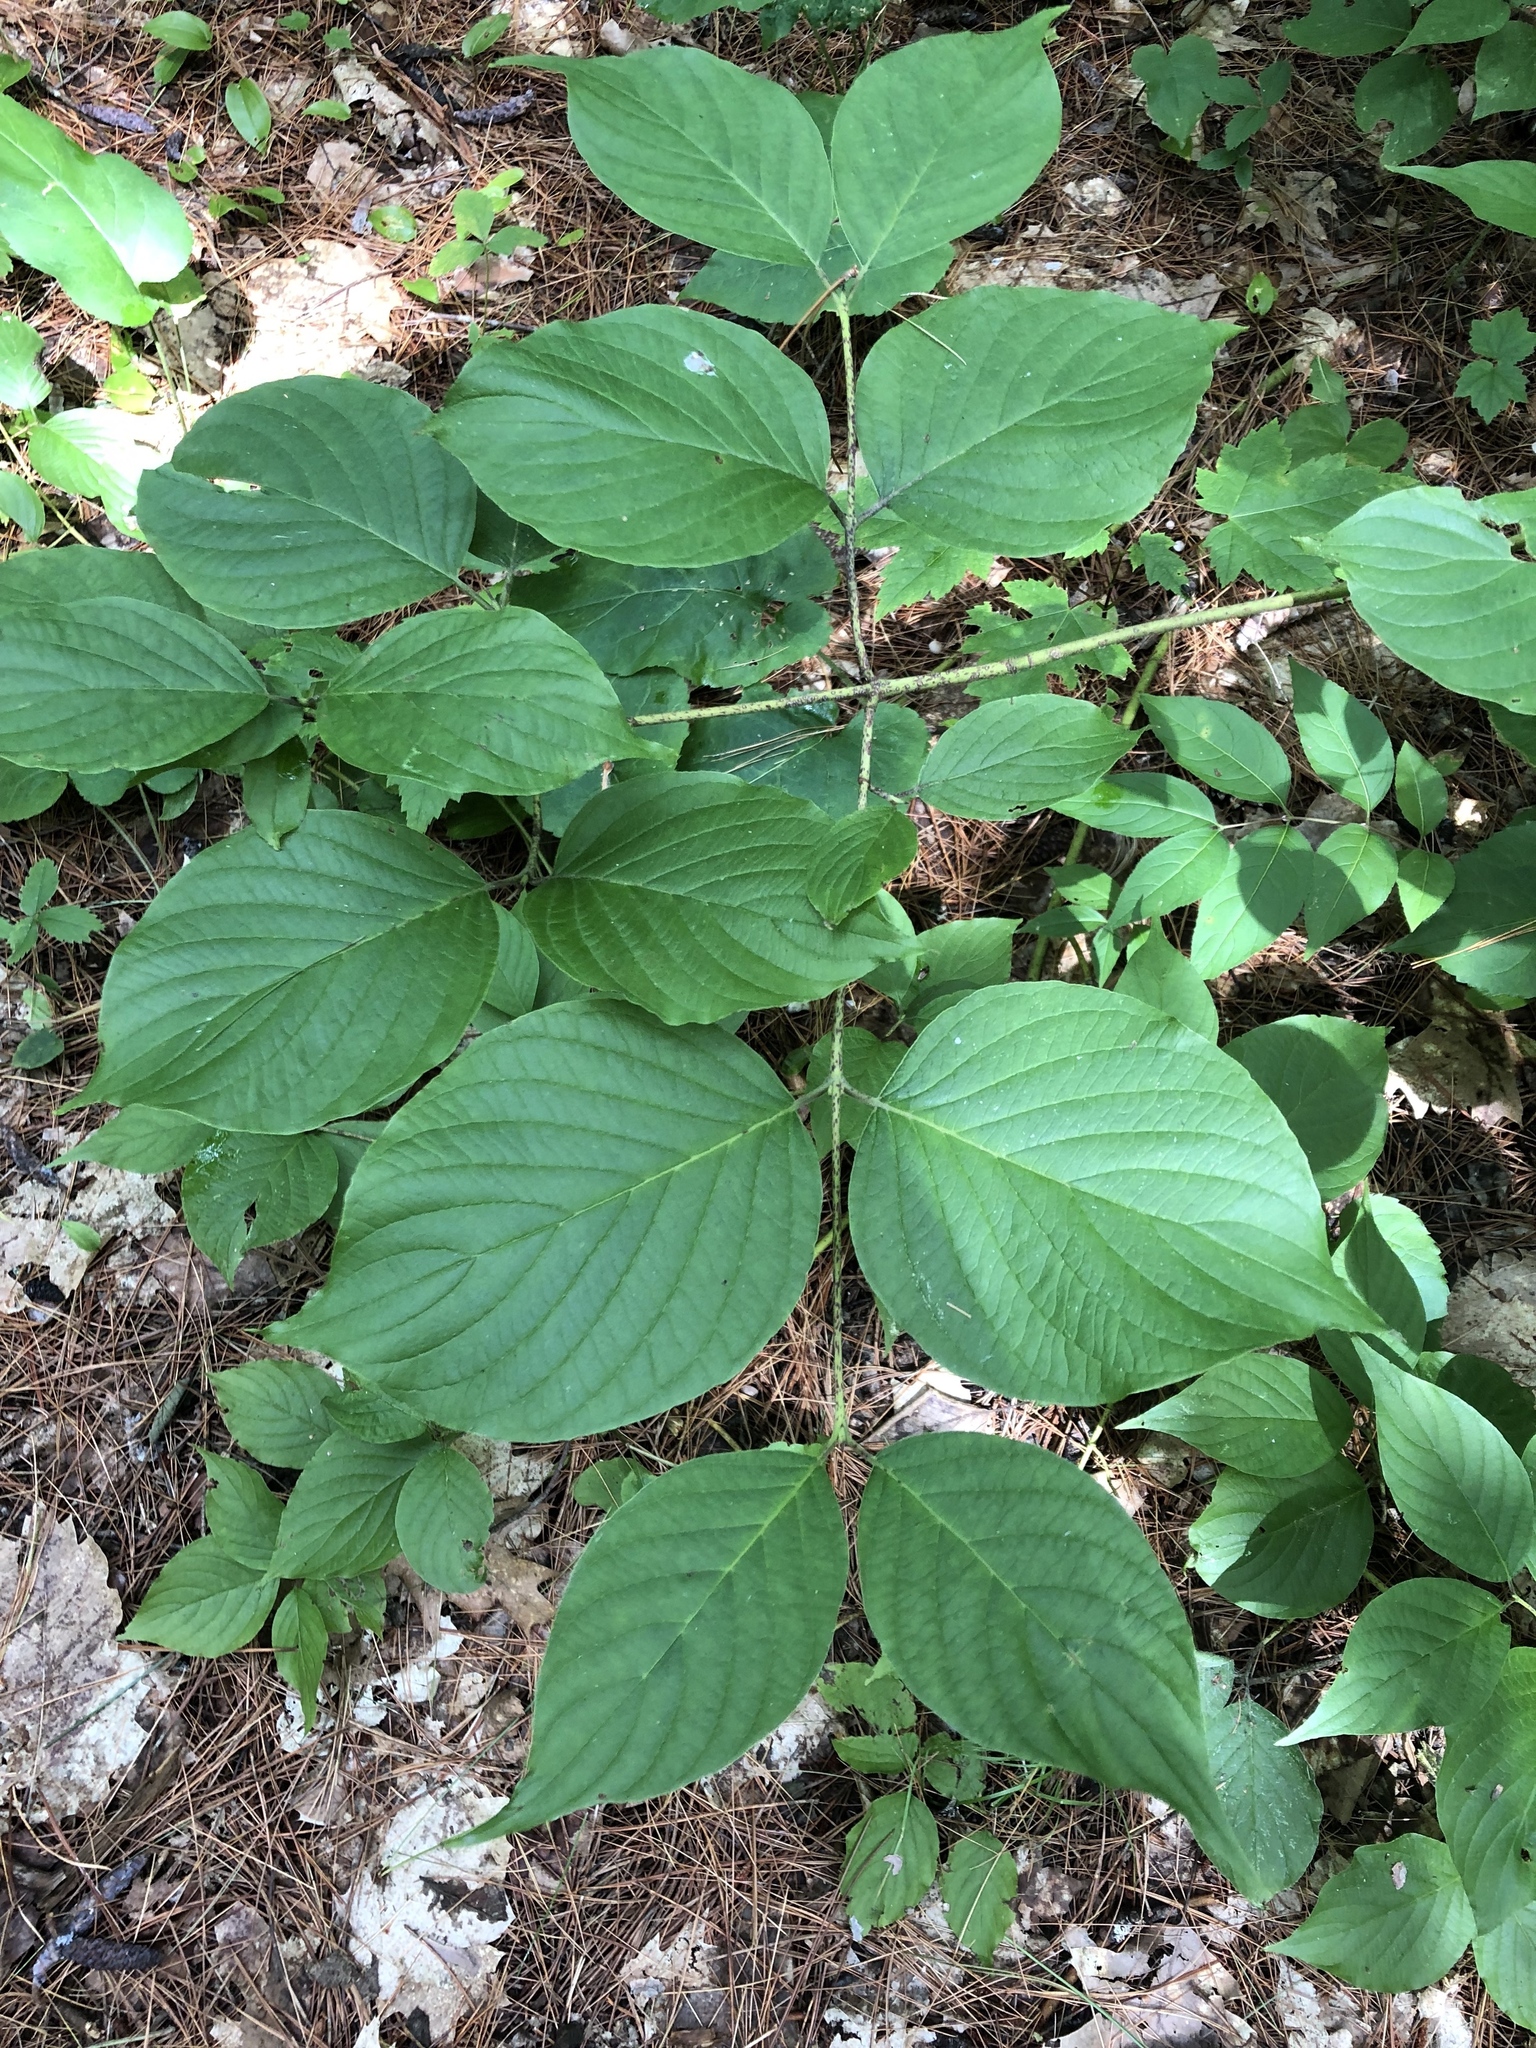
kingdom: Plantae
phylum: Tracheophyta
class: Magnoliopsida
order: Cornales
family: Cornaceae
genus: Cornus
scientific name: Cornus rugosa
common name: Round-leaf dogwood
